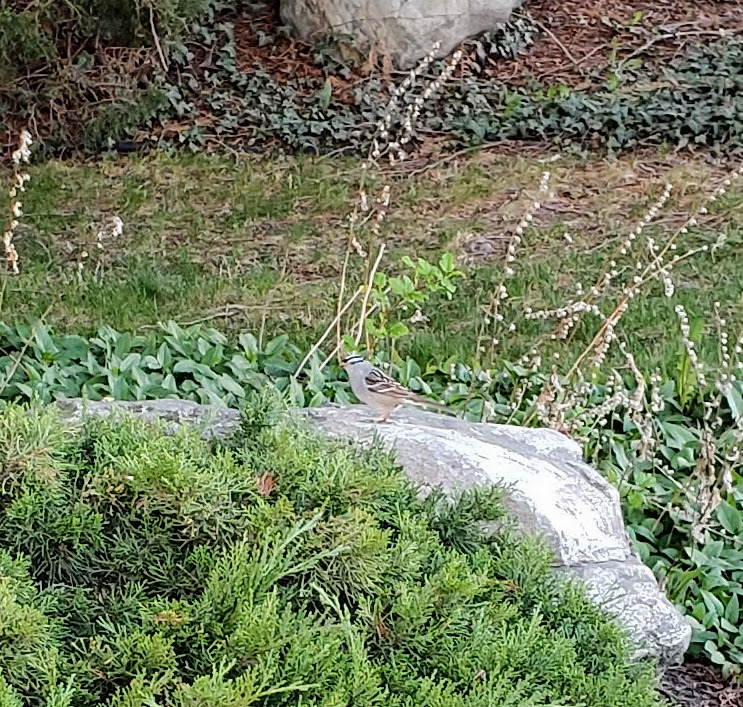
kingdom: Animalia
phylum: Chordata
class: Aves
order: Passeriformes
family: Passerellidae
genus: Zonotrichia
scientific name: Zonotrichia leucophrys
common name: White-crowned sparrow
